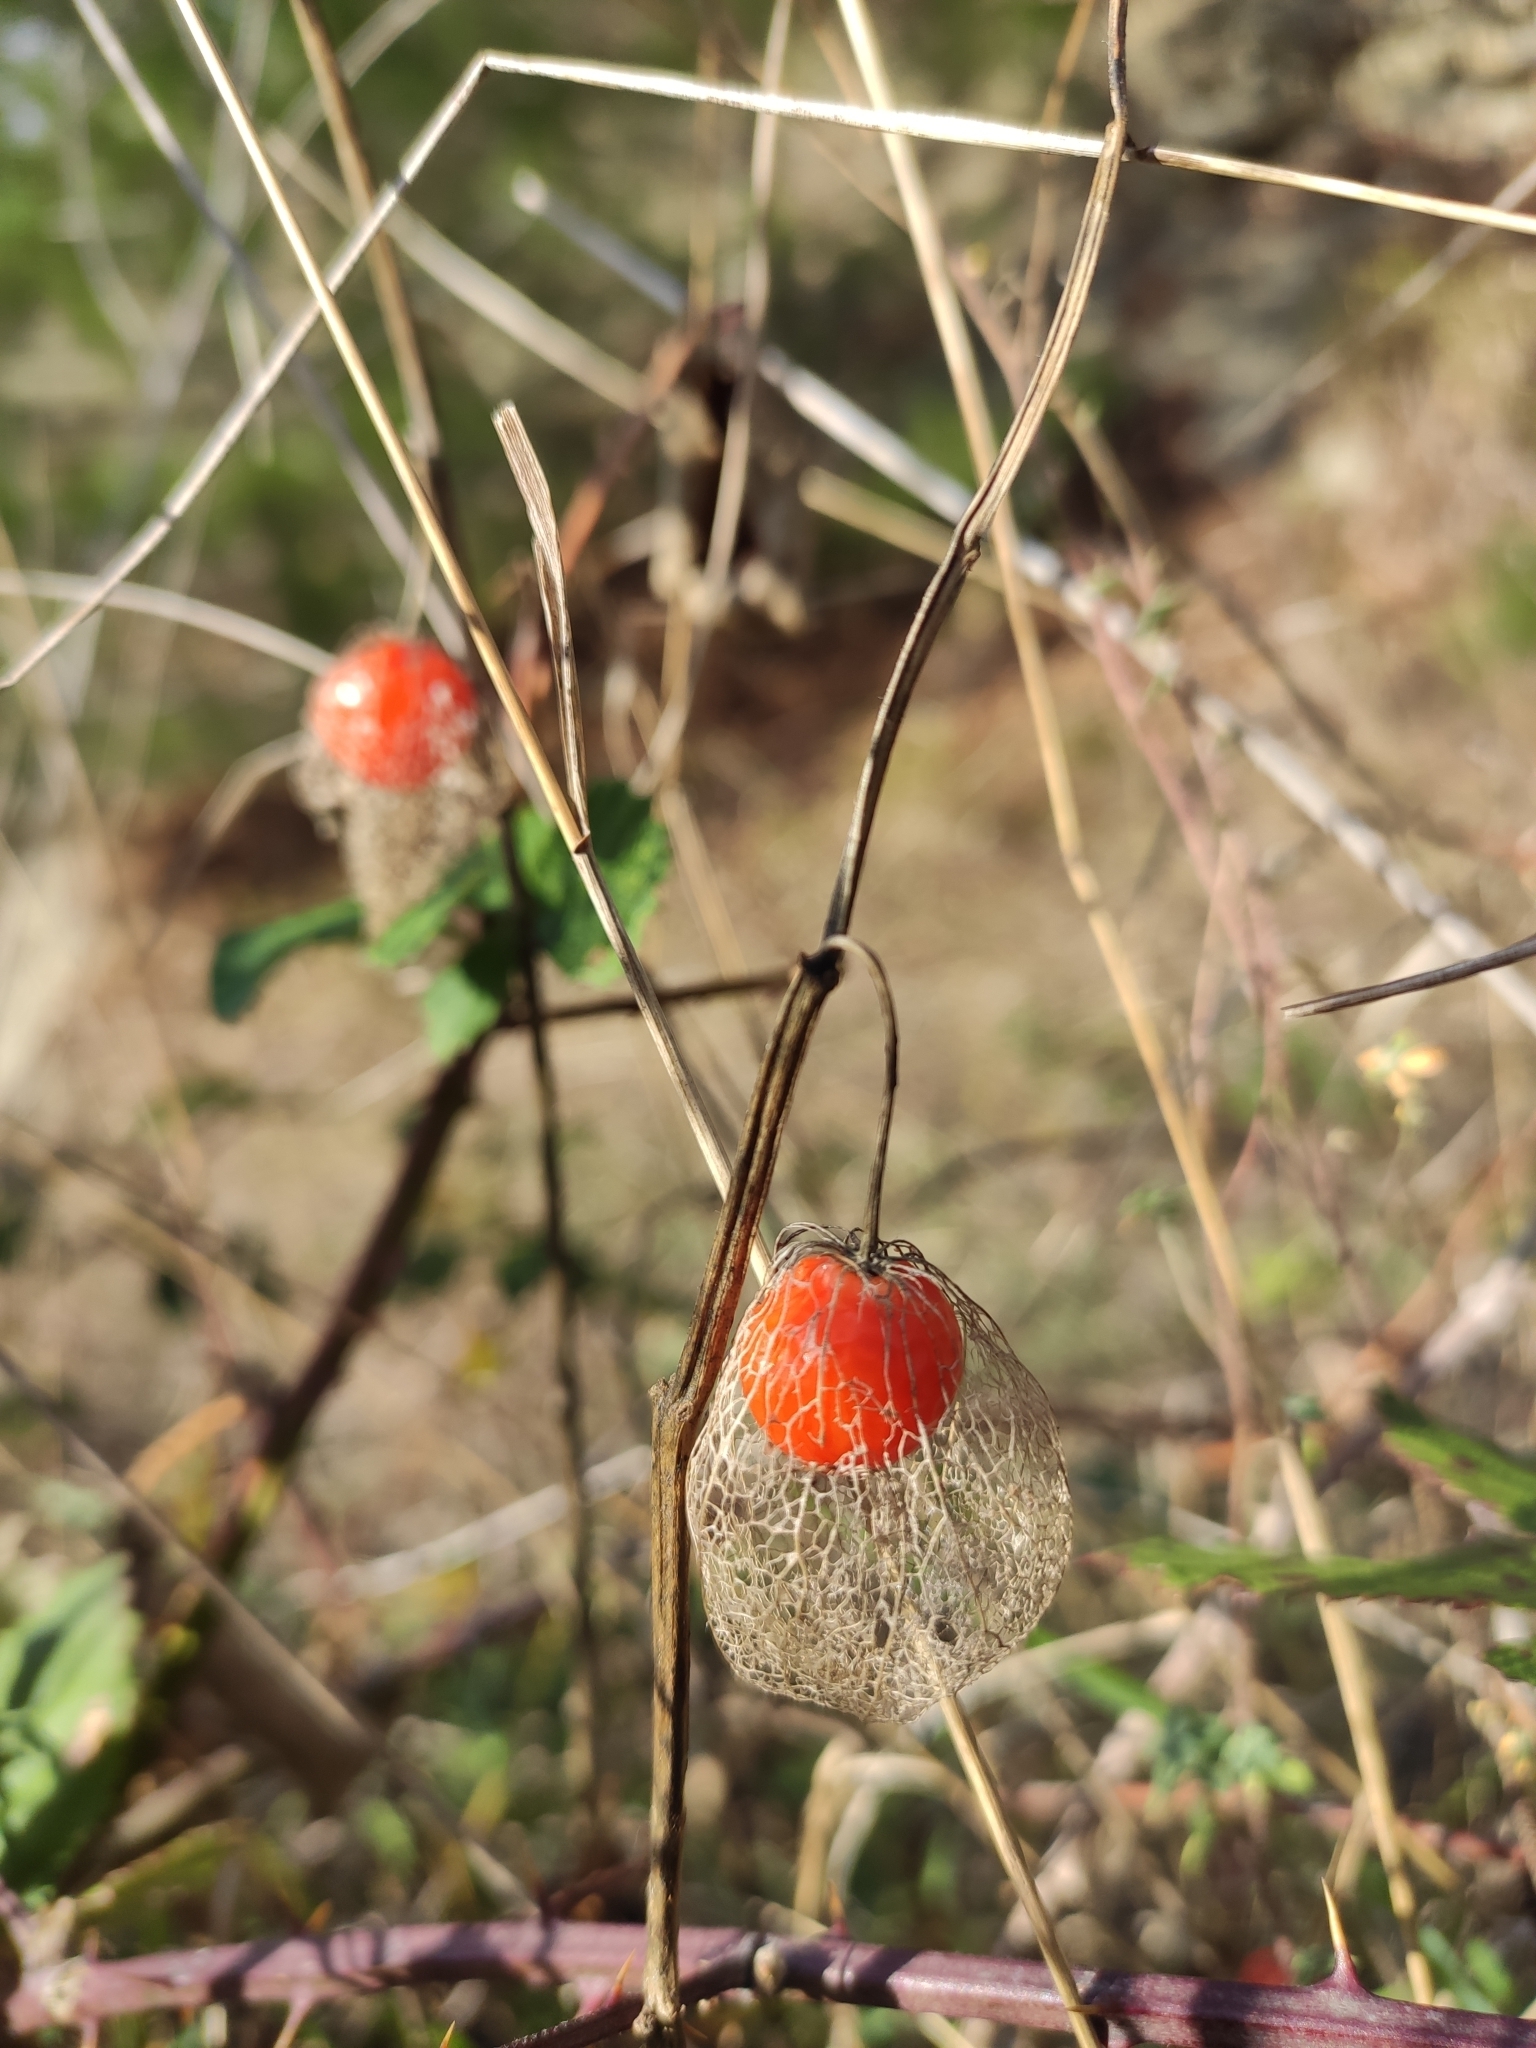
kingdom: Plantae
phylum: Tracheophyta
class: Magnoliopsida
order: Solanales
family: Solanaceae
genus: Alkekengi
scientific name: Alkekengi officinarum
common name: Japanese-lantern
